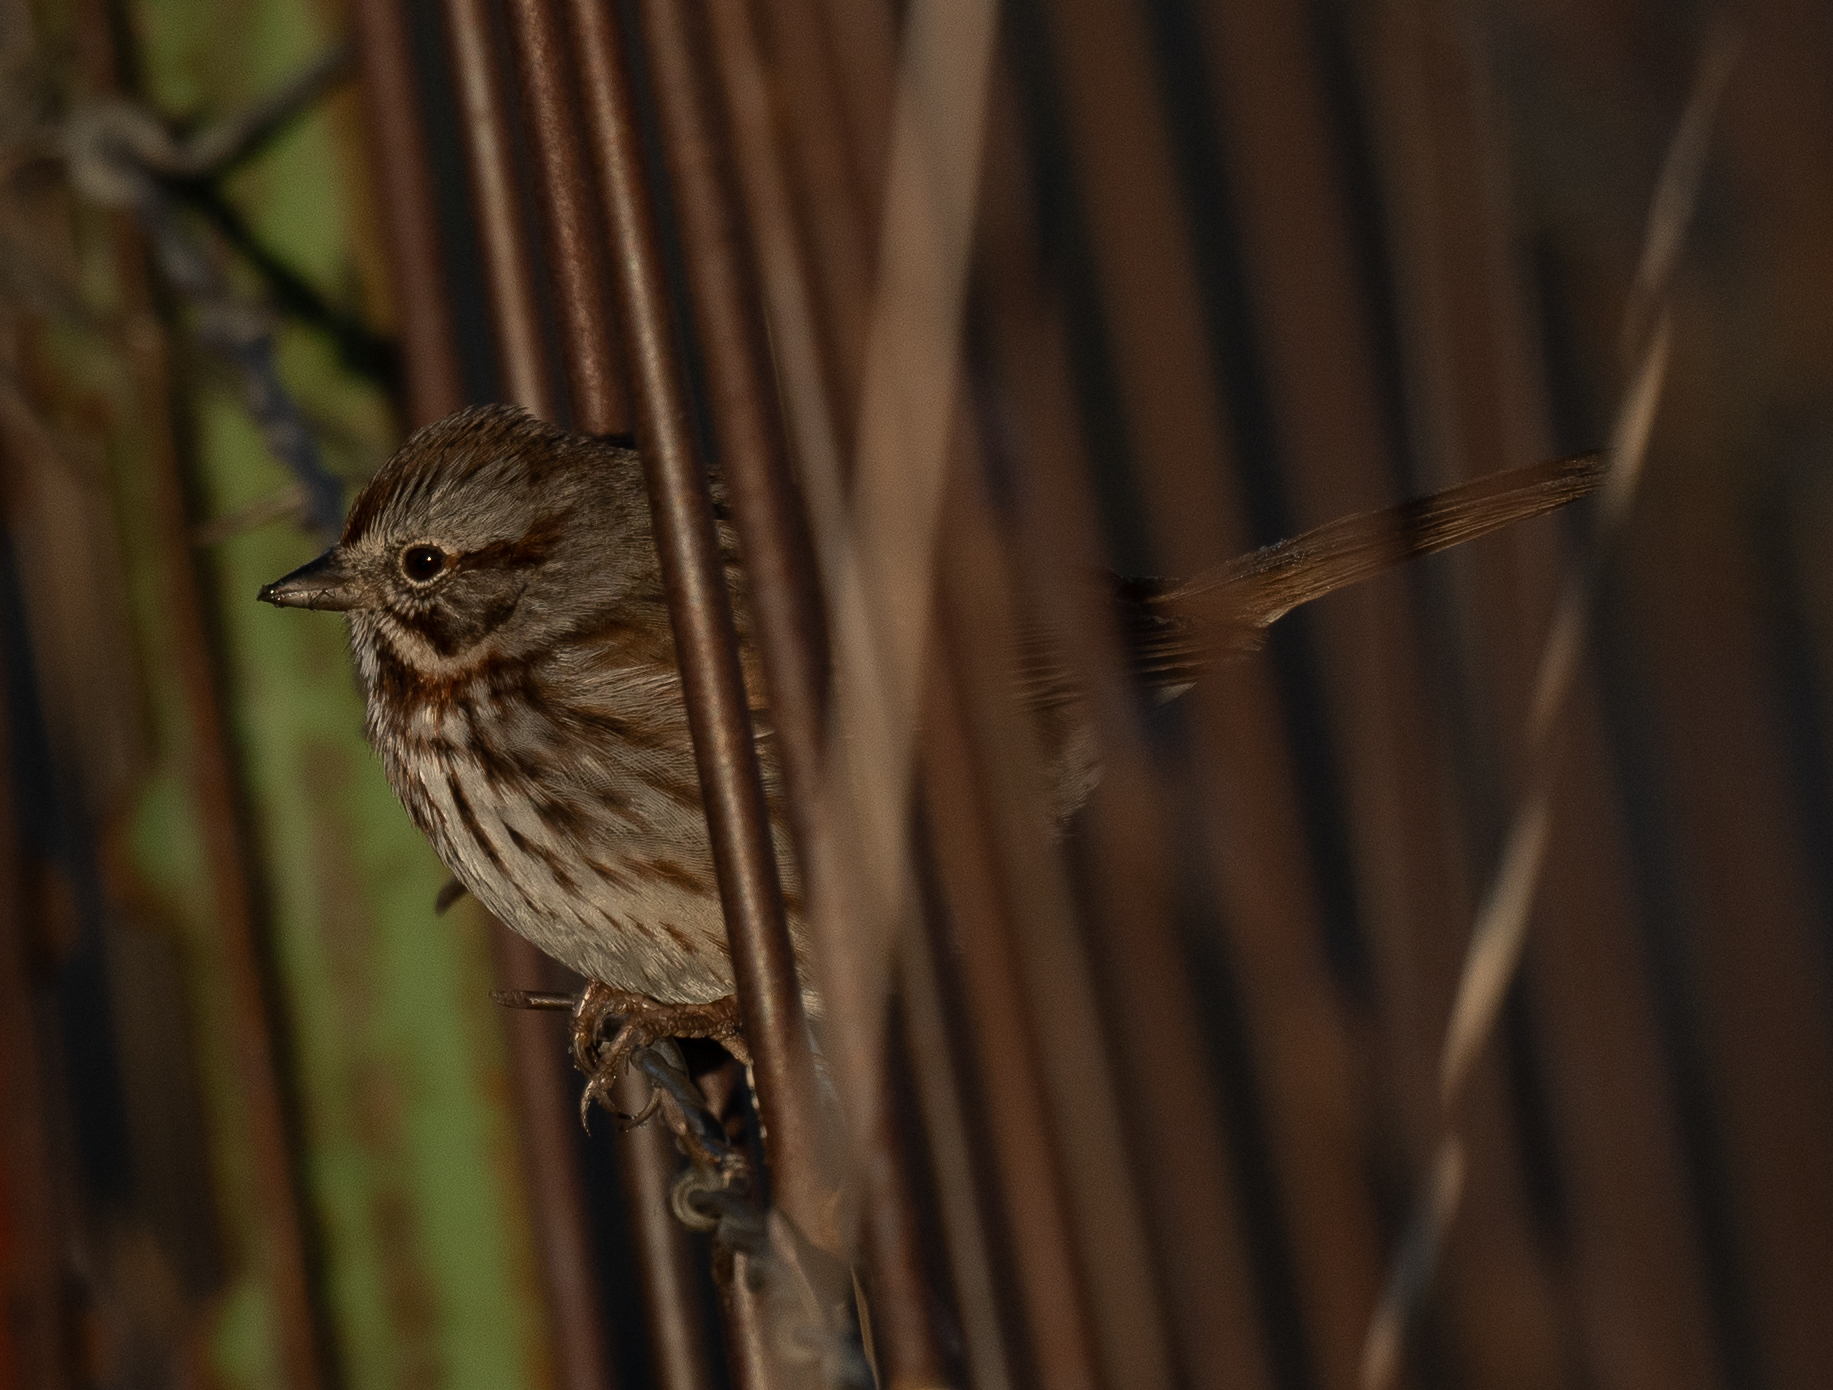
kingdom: Animalia
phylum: Chordata
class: Aves
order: Passeriformes
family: Passerellidae
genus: Melospiza
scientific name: Melospiza melodia
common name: Song sparrow
